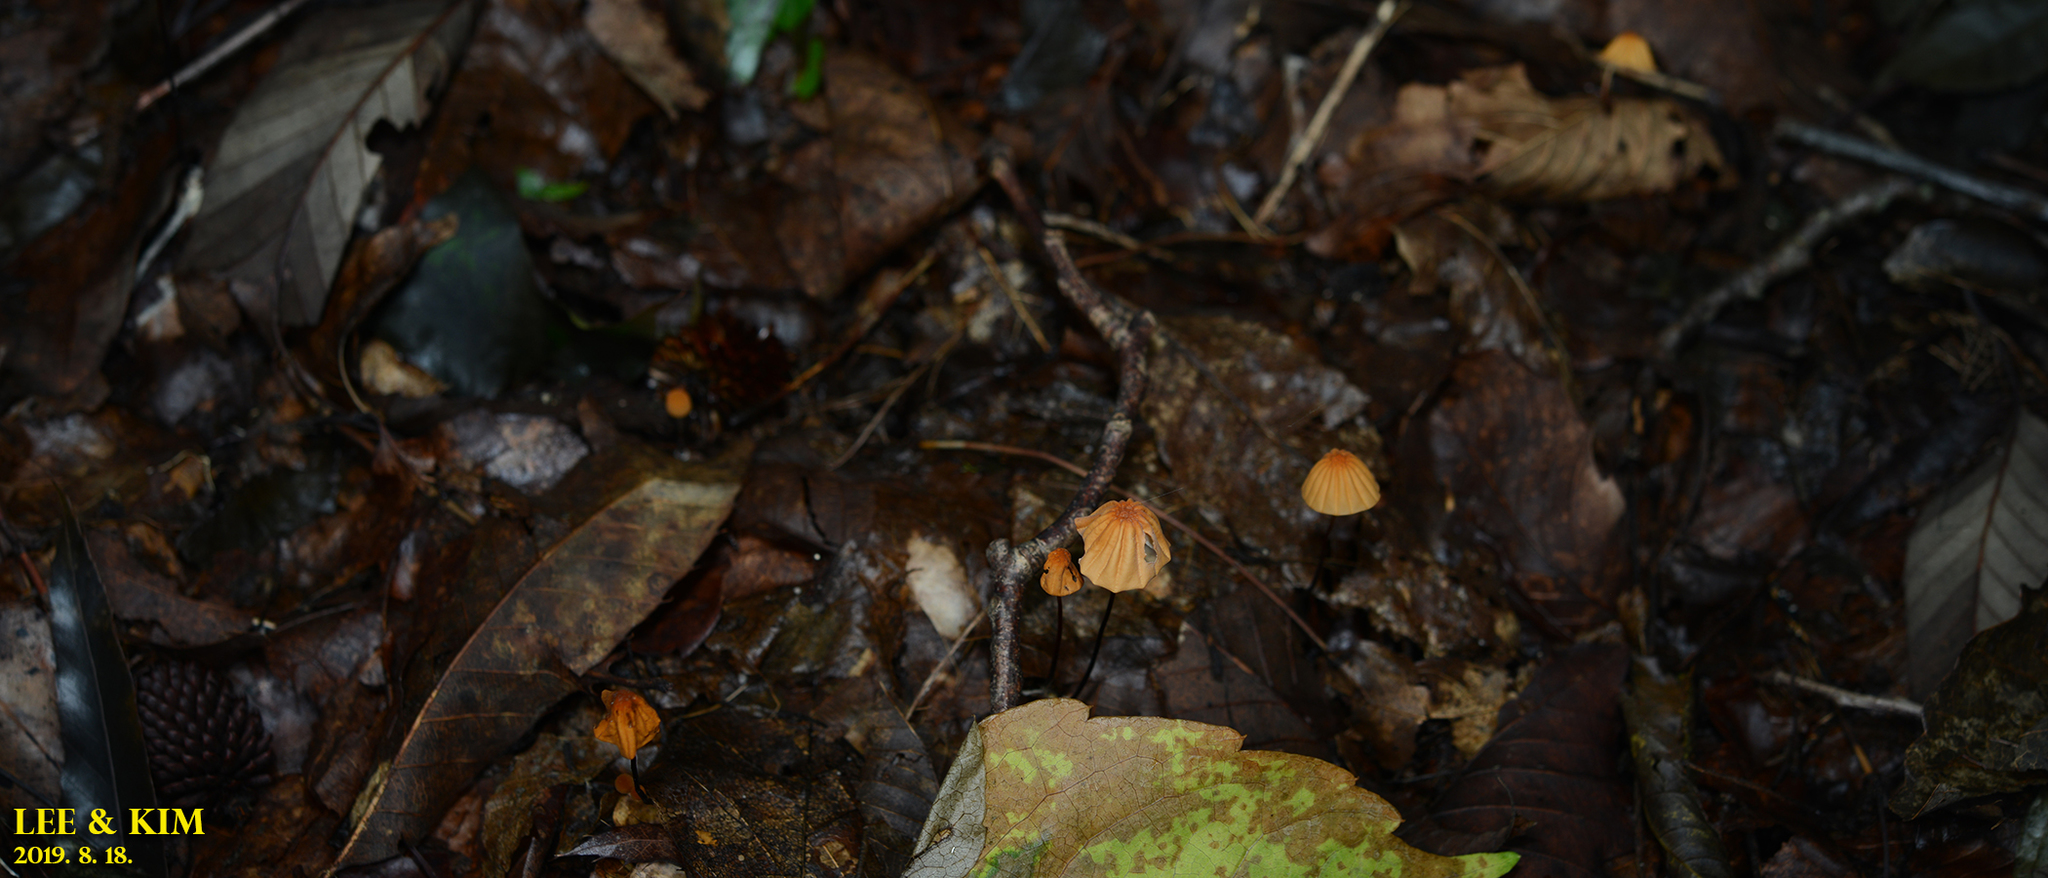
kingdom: Fungi
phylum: Basidiomycota
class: Agaricomycetes
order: Agaricales
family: Marasmiaceae
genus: Marasmius
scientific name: Marasmius siccus
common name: Orange pinwheel
